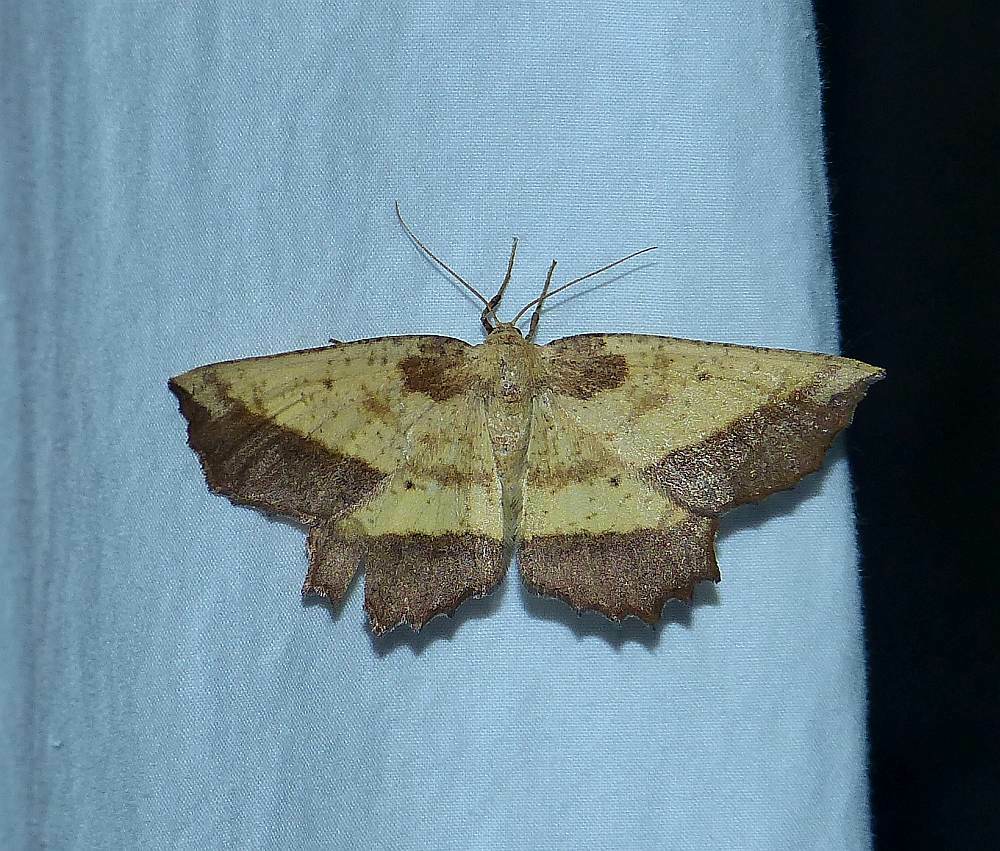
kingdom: Animalia
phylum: Arthropoda
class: Insecta
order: Lepidoptera
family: Geometridae
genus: Euchlaena
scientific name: Euchlaena serrata
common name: Saw wing
